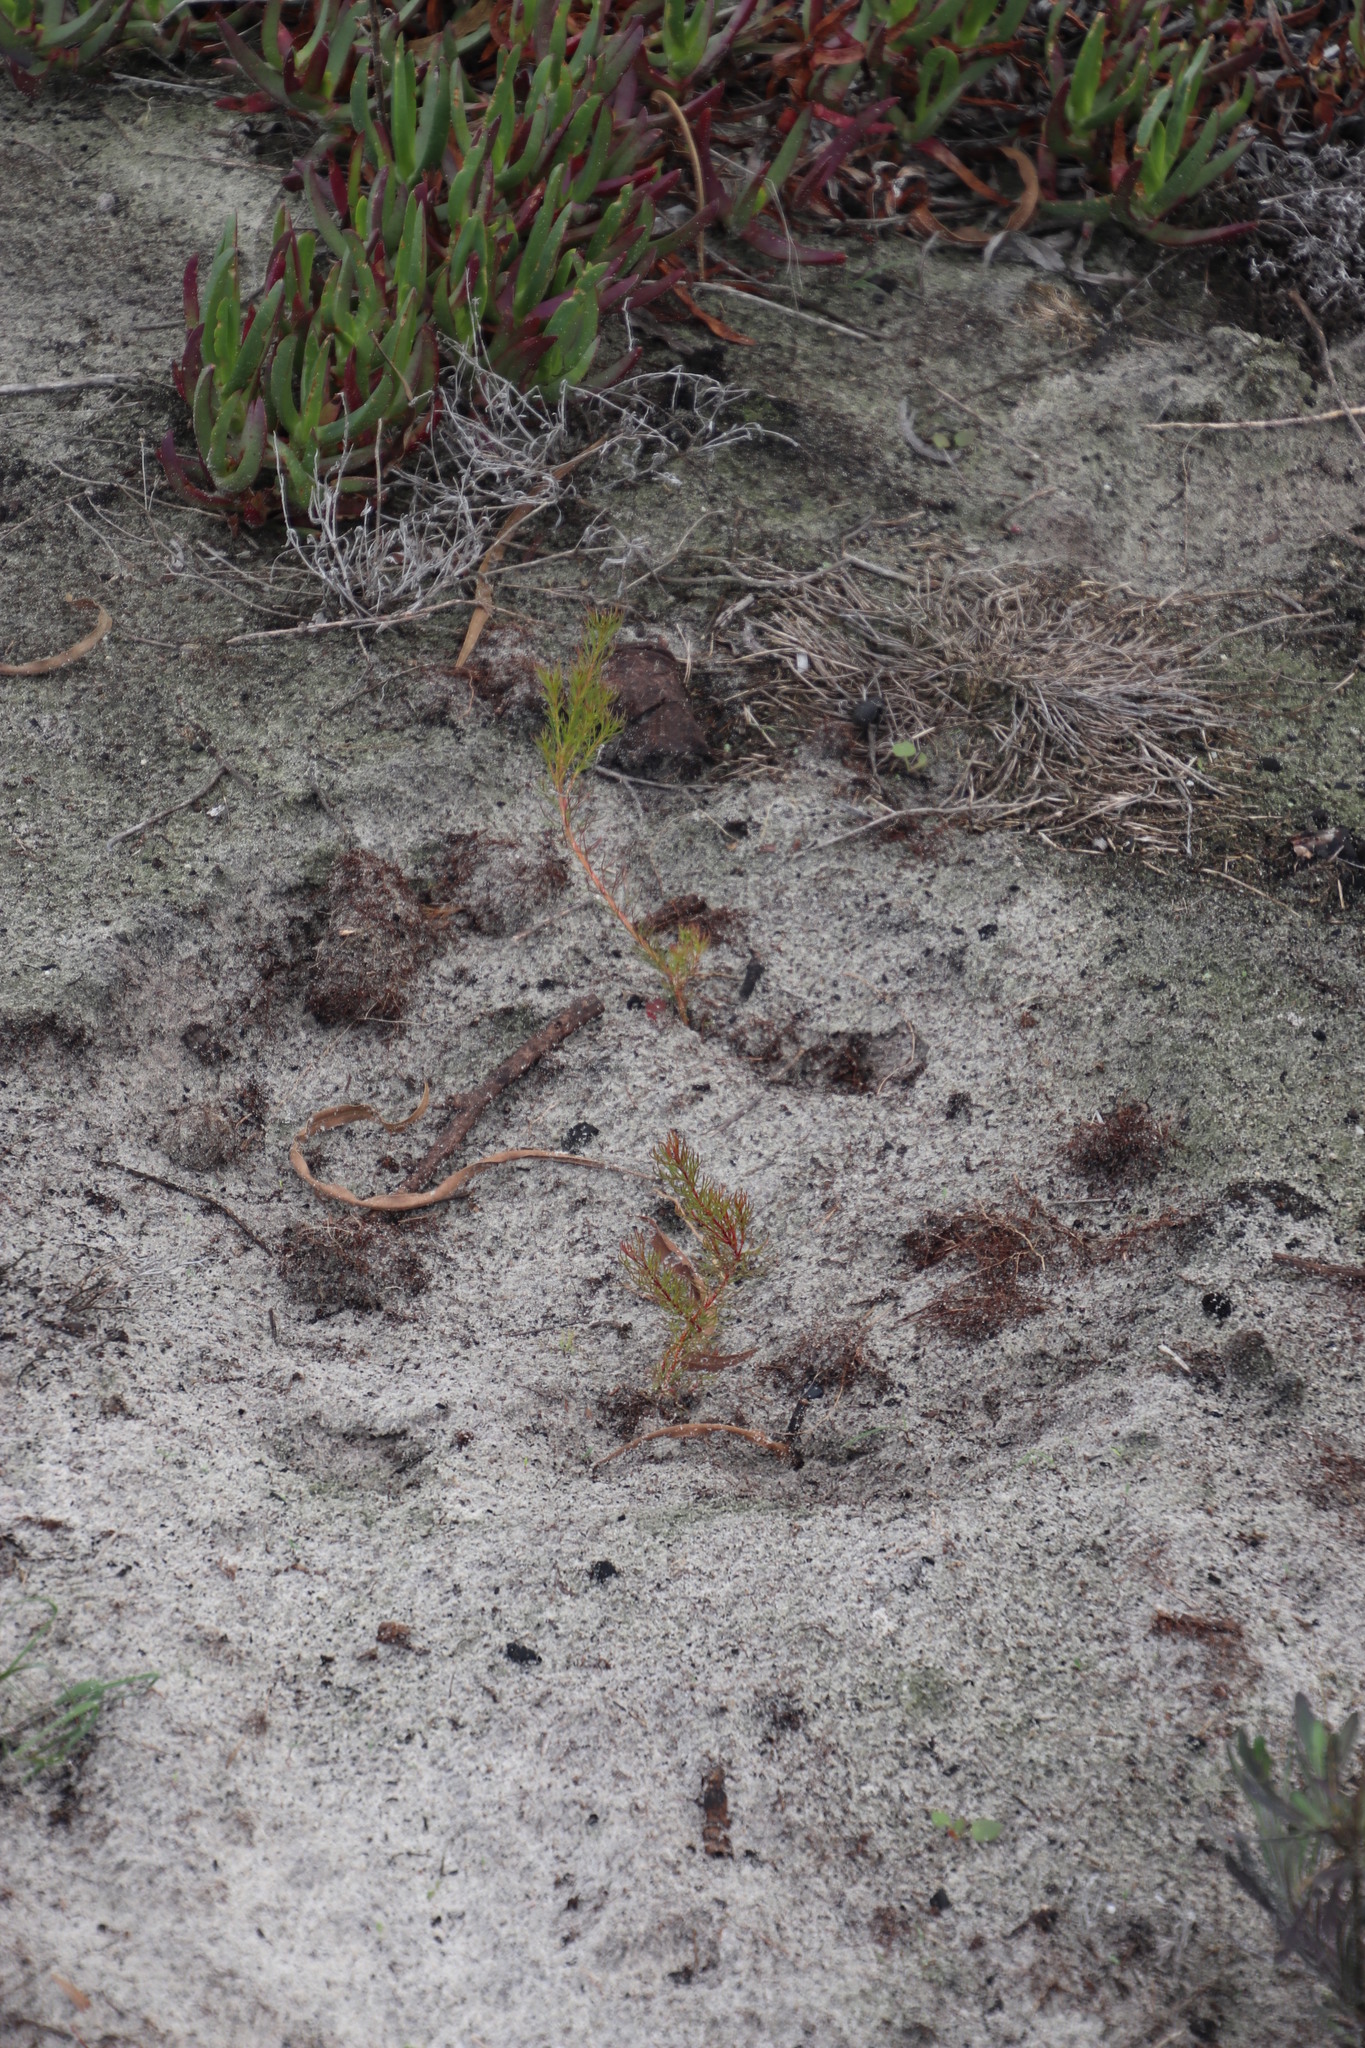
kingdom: Plantae
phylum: Tracheophyta
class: Magnoliopsida
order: Proteales
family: Proteaceae
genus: Serruria
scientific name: Serruria aemula
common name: Strawberry spiderhead
